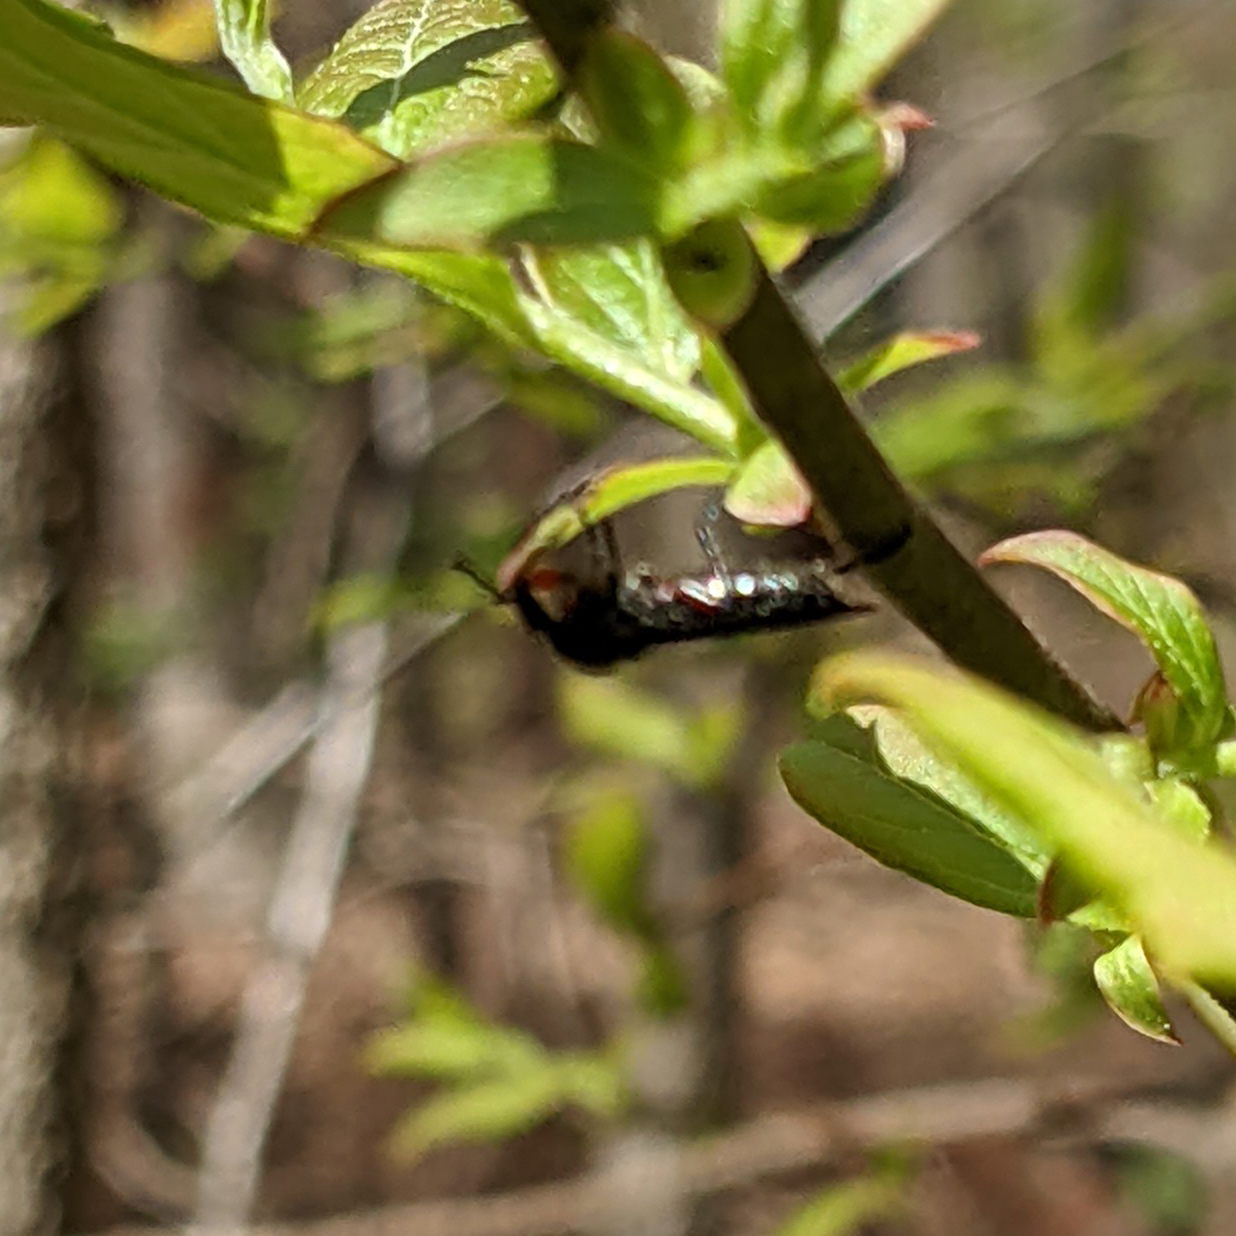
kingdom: Animalia
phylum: Arthropoda
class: Insecta
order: Diptera
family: Bibionidae
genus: Bibio
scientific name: Bibio
